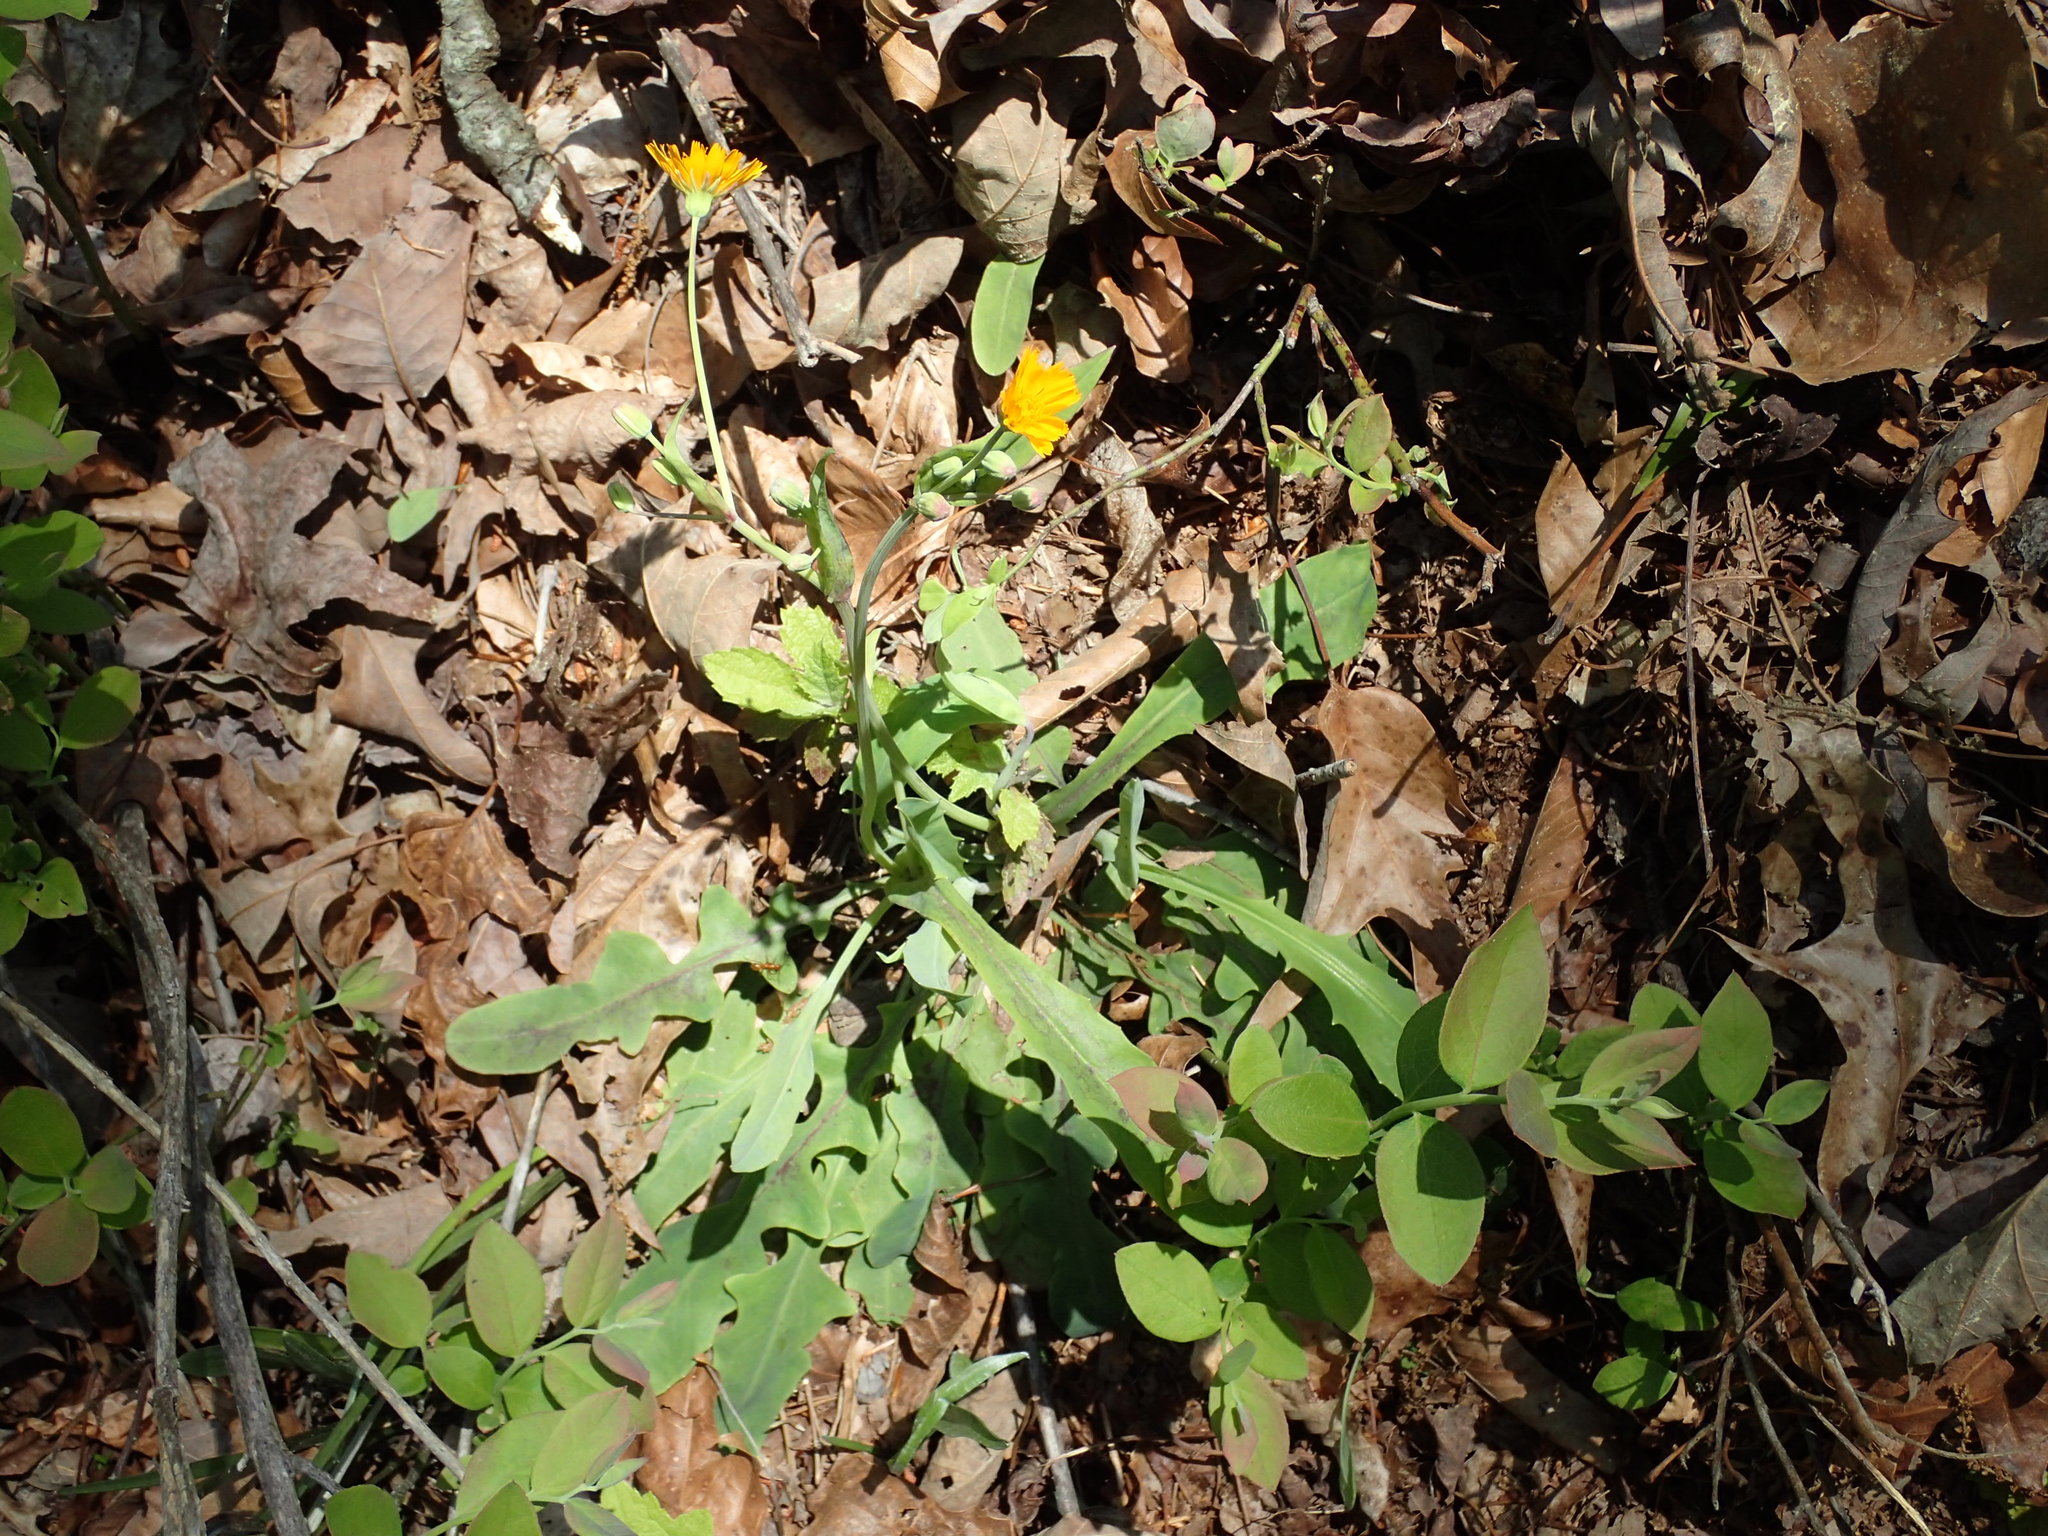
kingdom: Plantae
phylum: Tracheophyta
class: Magnoliopsida
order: Asterales
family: Asteraceae
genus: Krigia
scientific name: Krigia biflora
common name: Orange dwarf-dandelion
